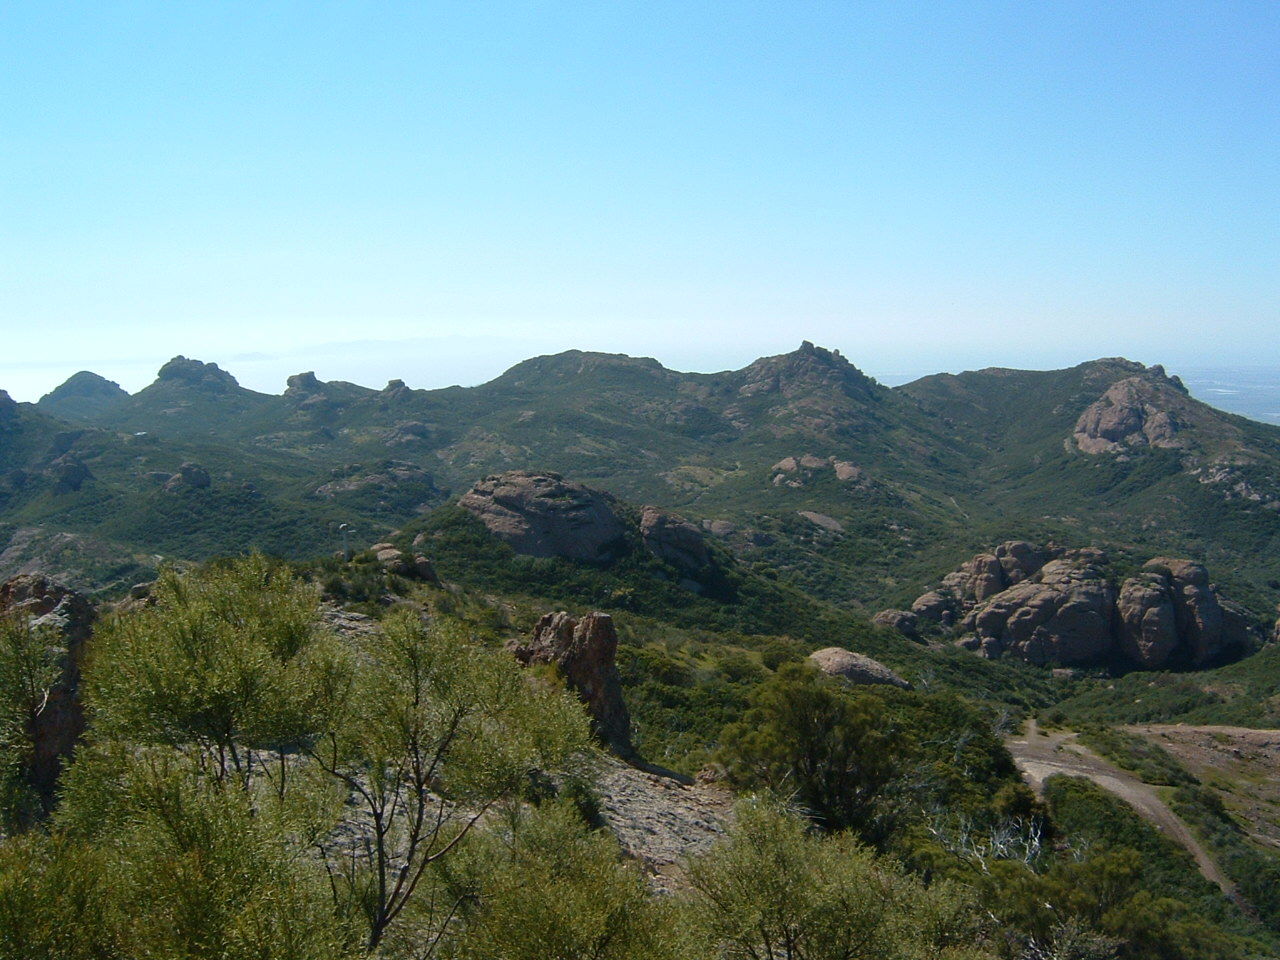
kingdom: Plantae
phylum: Tracheophyta
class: Magnoliopsida
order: Rosales
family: Rosaceae
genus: Adenostoma
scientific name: Adenostoma sparsifolium
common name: Red shank
